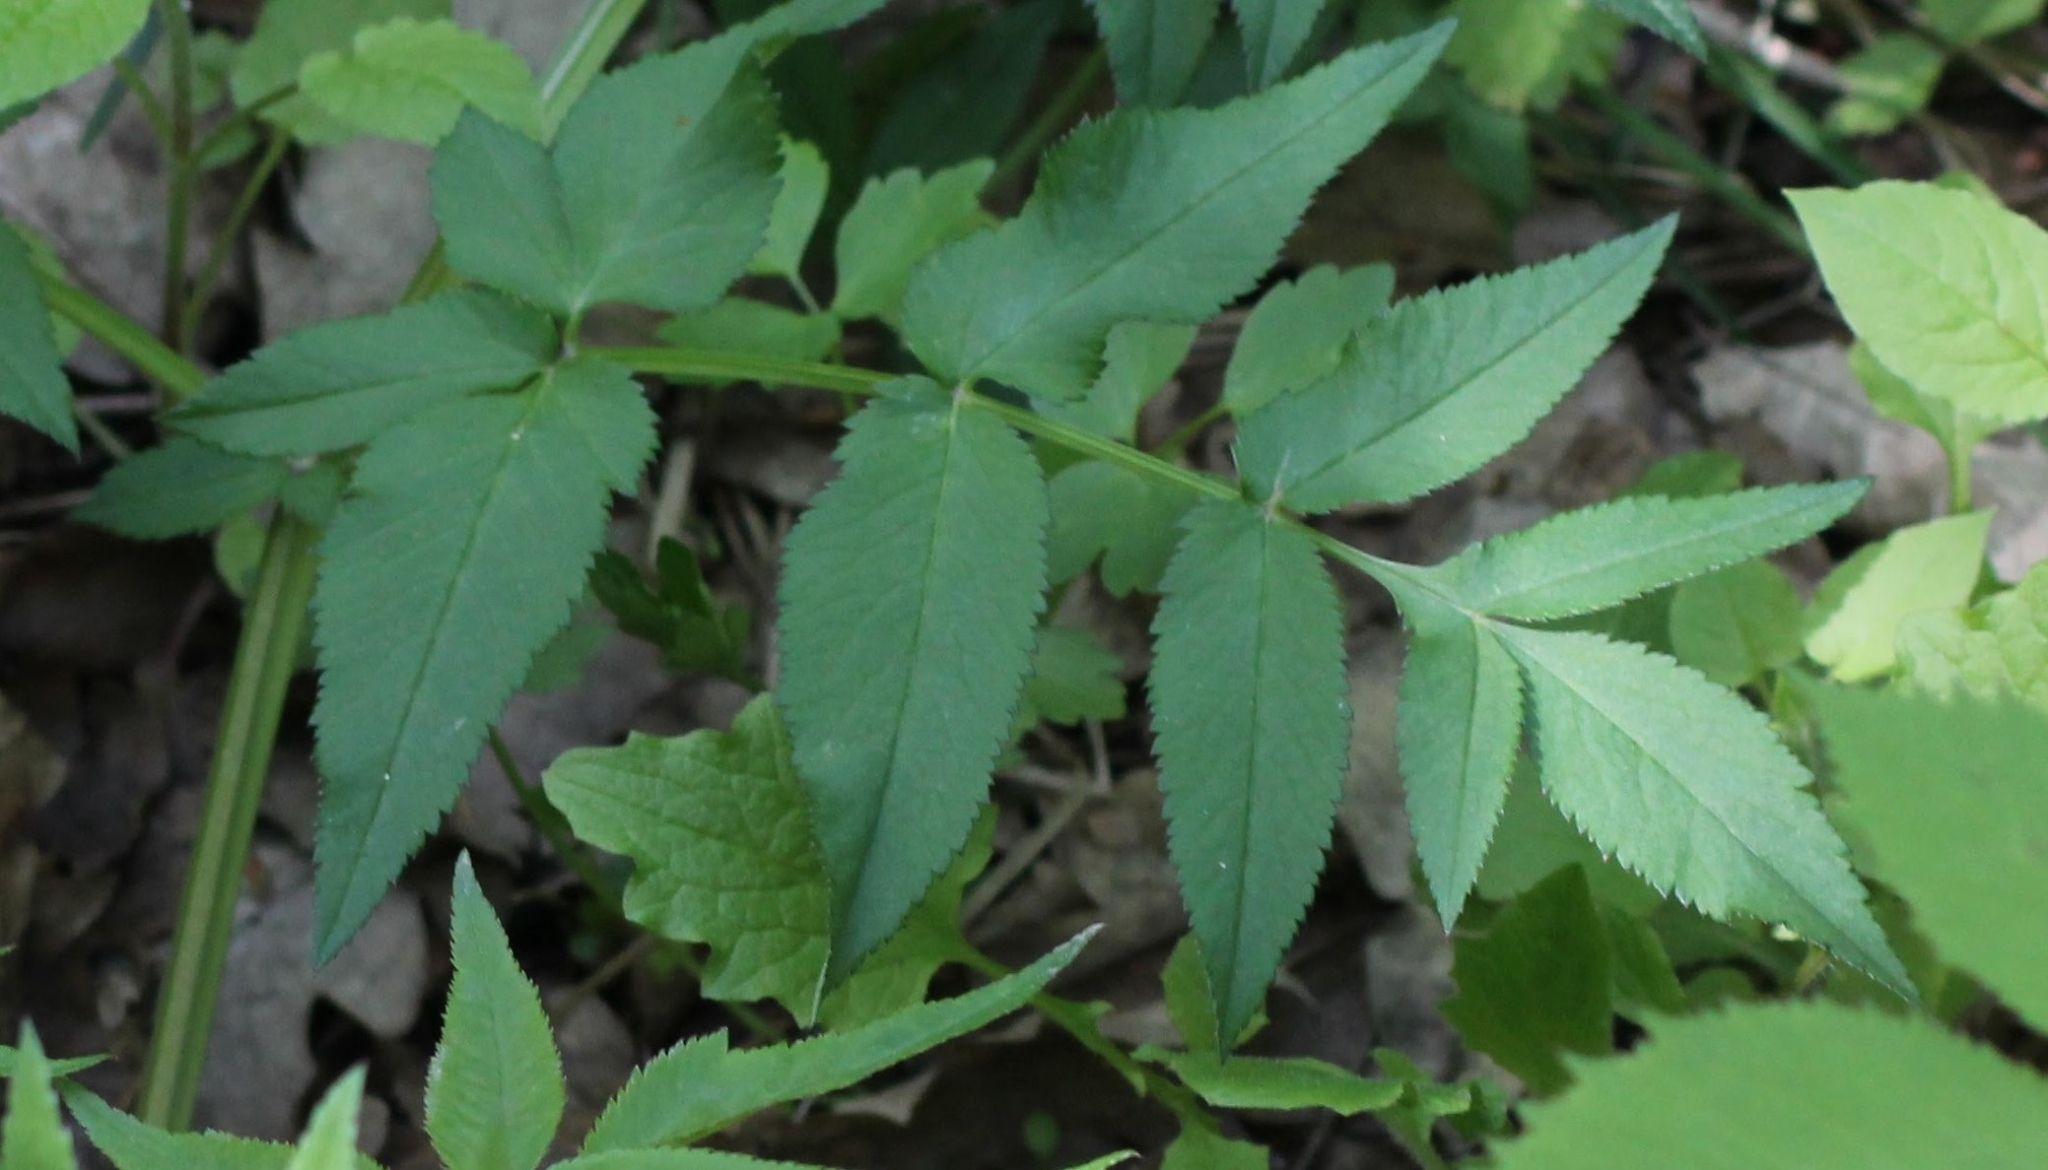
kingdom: Plantae
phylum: Tracheophyta
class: Magnoliopsida
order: Apiales
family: Apiaceae
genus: Angelica
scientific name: Angelica sylvestris
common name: Wild angelica
